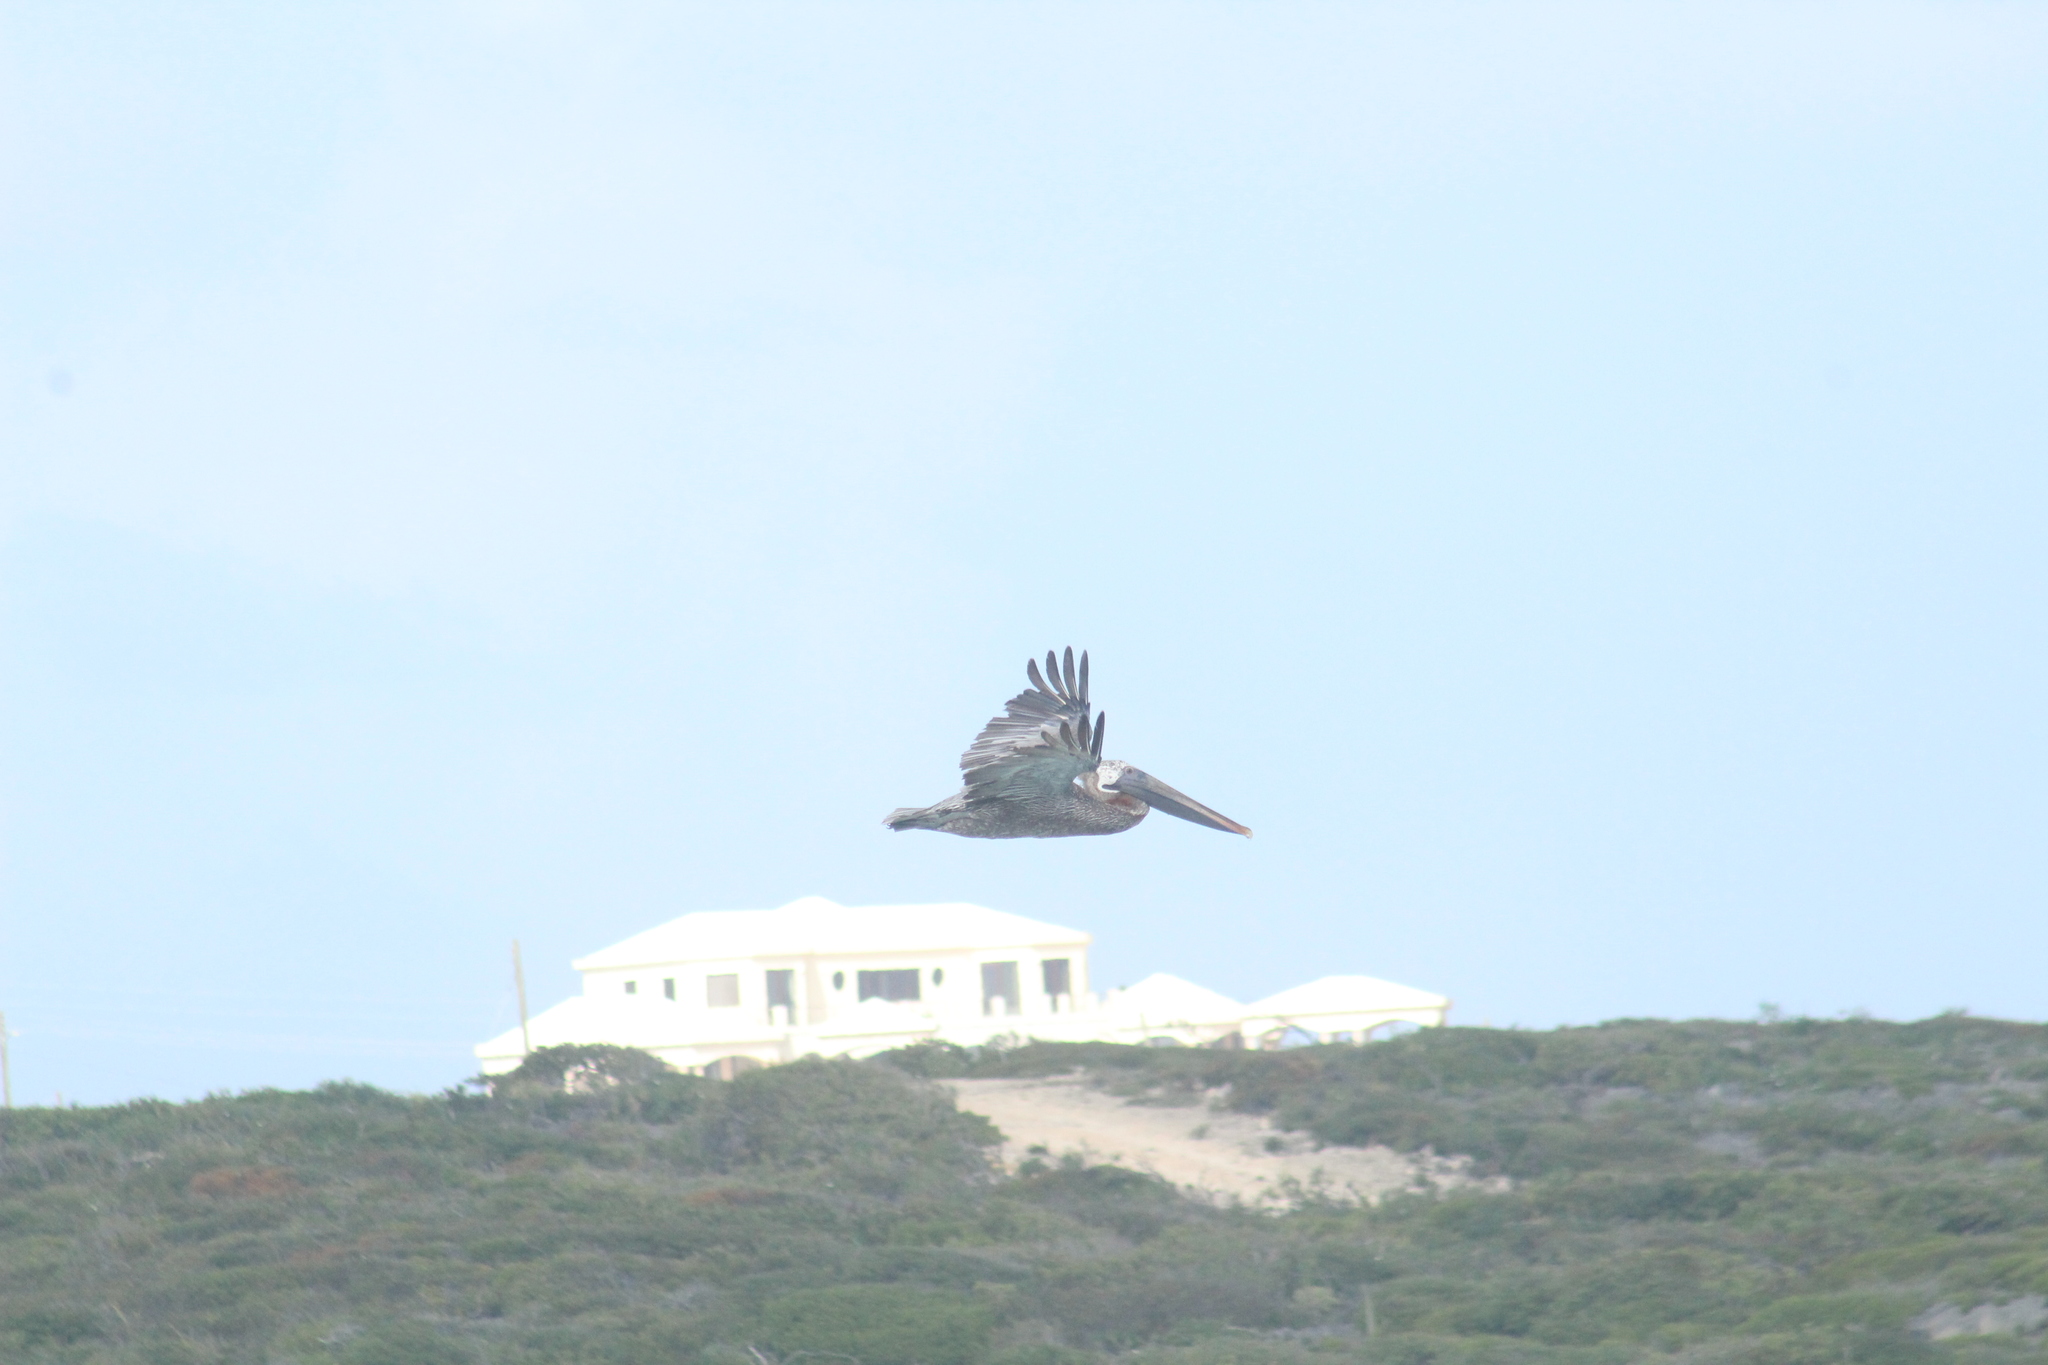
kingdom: Animalia
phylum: Chordata
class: Aves
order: Pelecaniformes
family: Pelecanidae
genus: Pelecanus
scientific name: Pelecanus occidentalis
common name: Brown pelican
